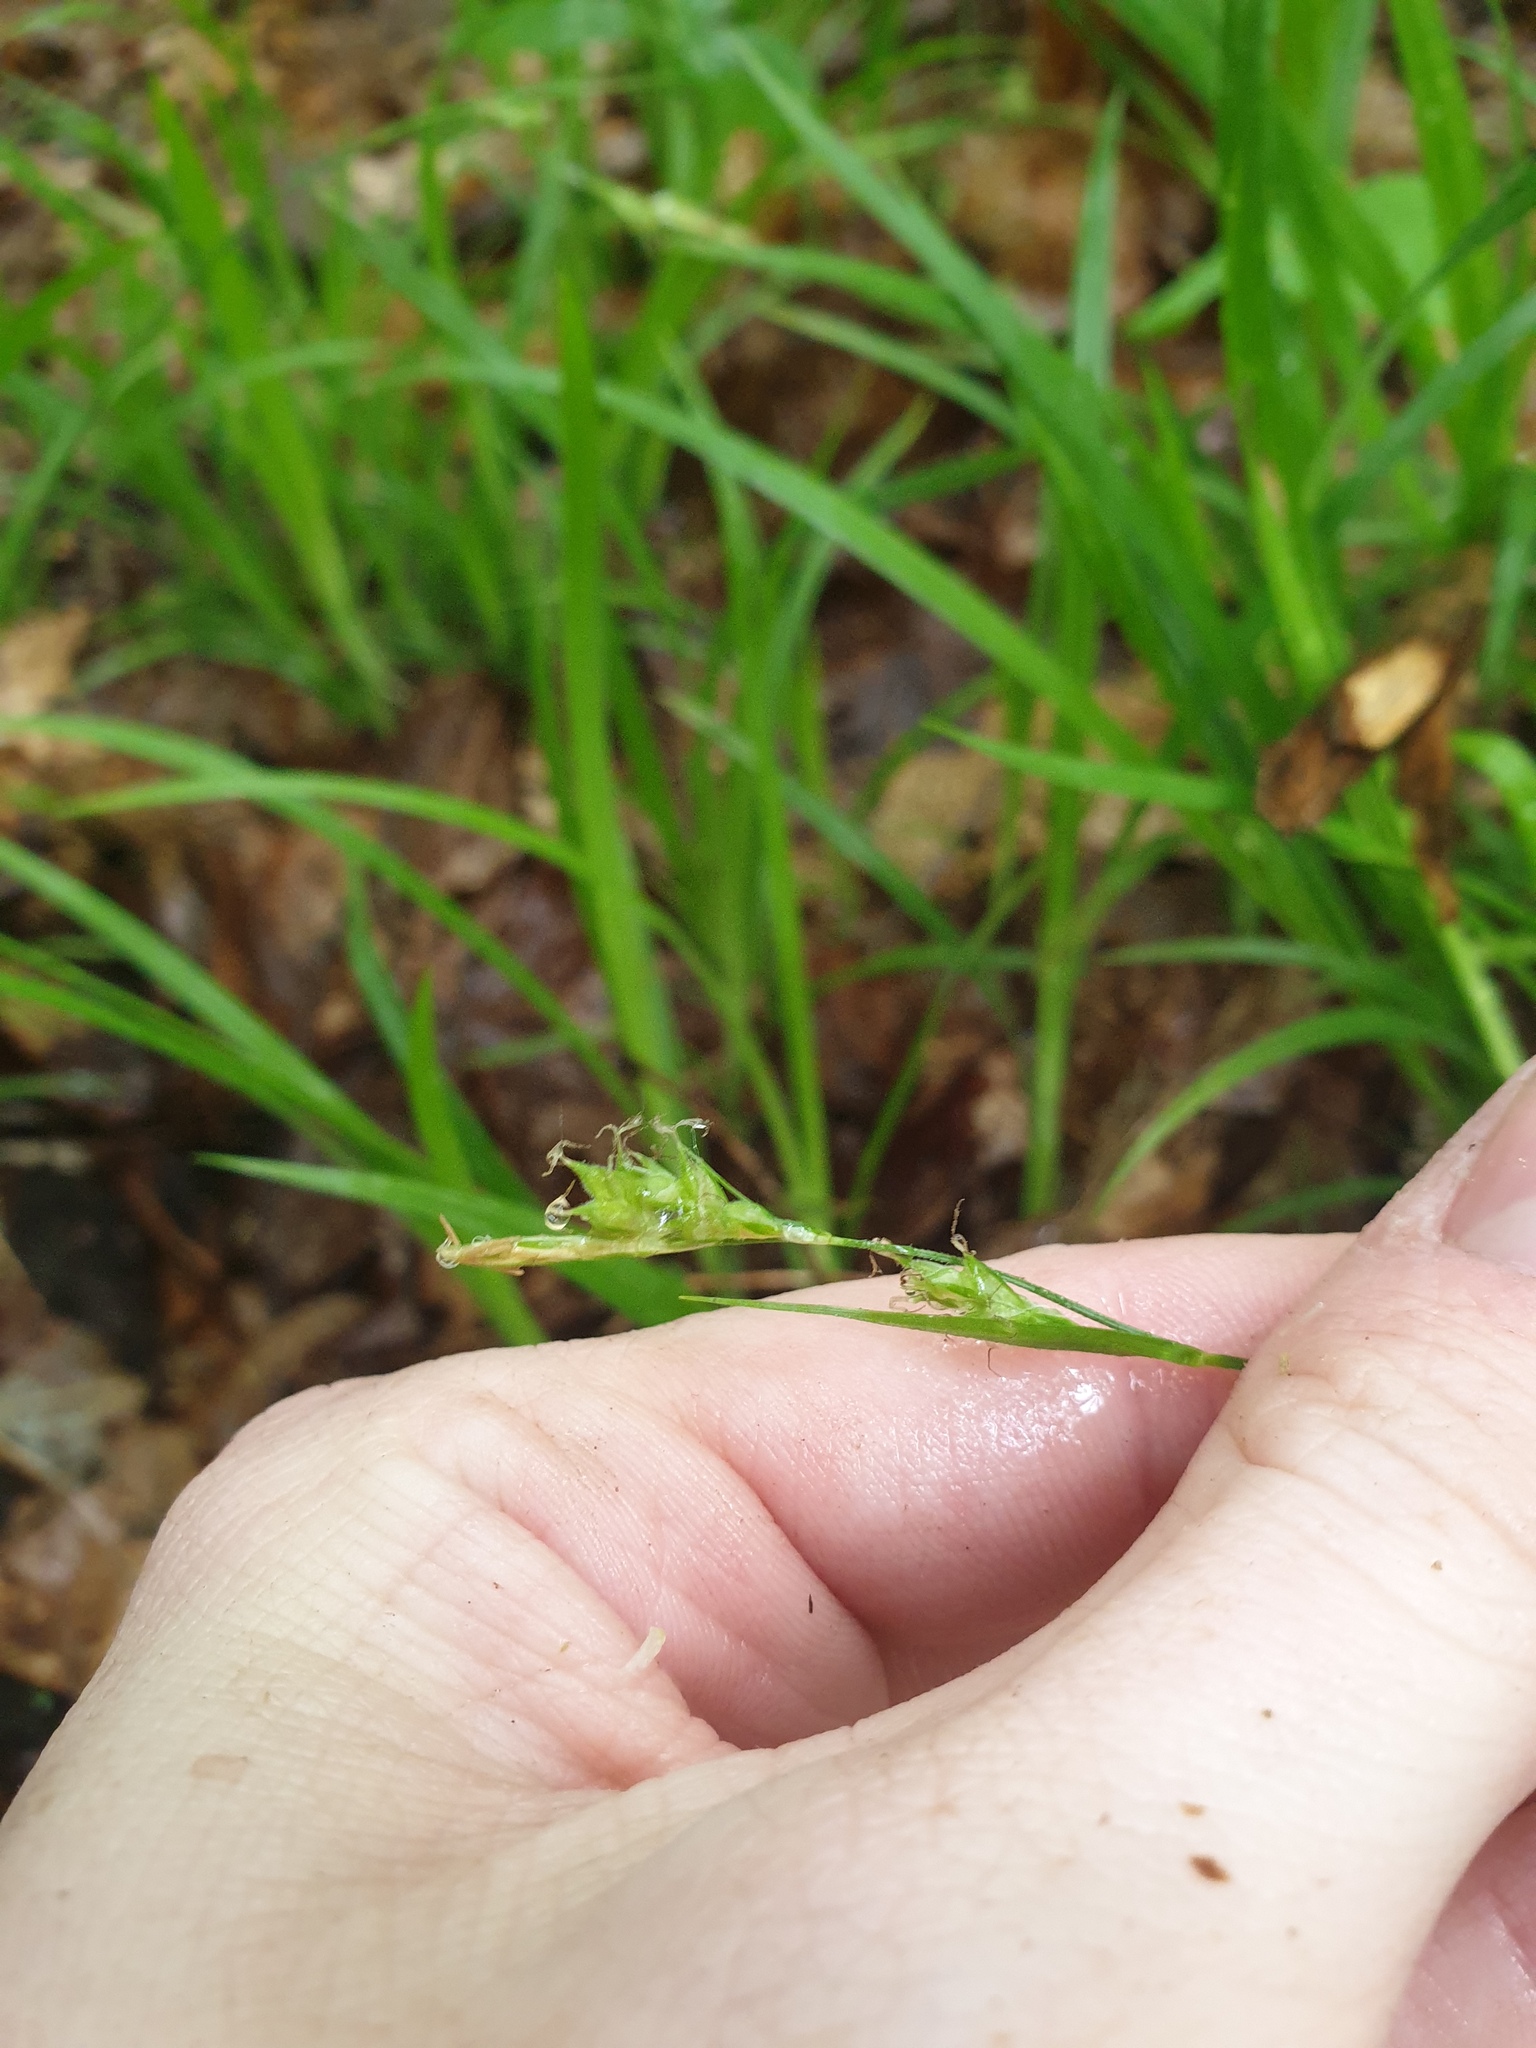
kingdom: Plantae
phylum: Tracheophyta
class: Liliopsida
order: Poales
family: Cyperaceae
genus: Carex
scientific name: Carex hirtifolia
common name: Hairy sedge
